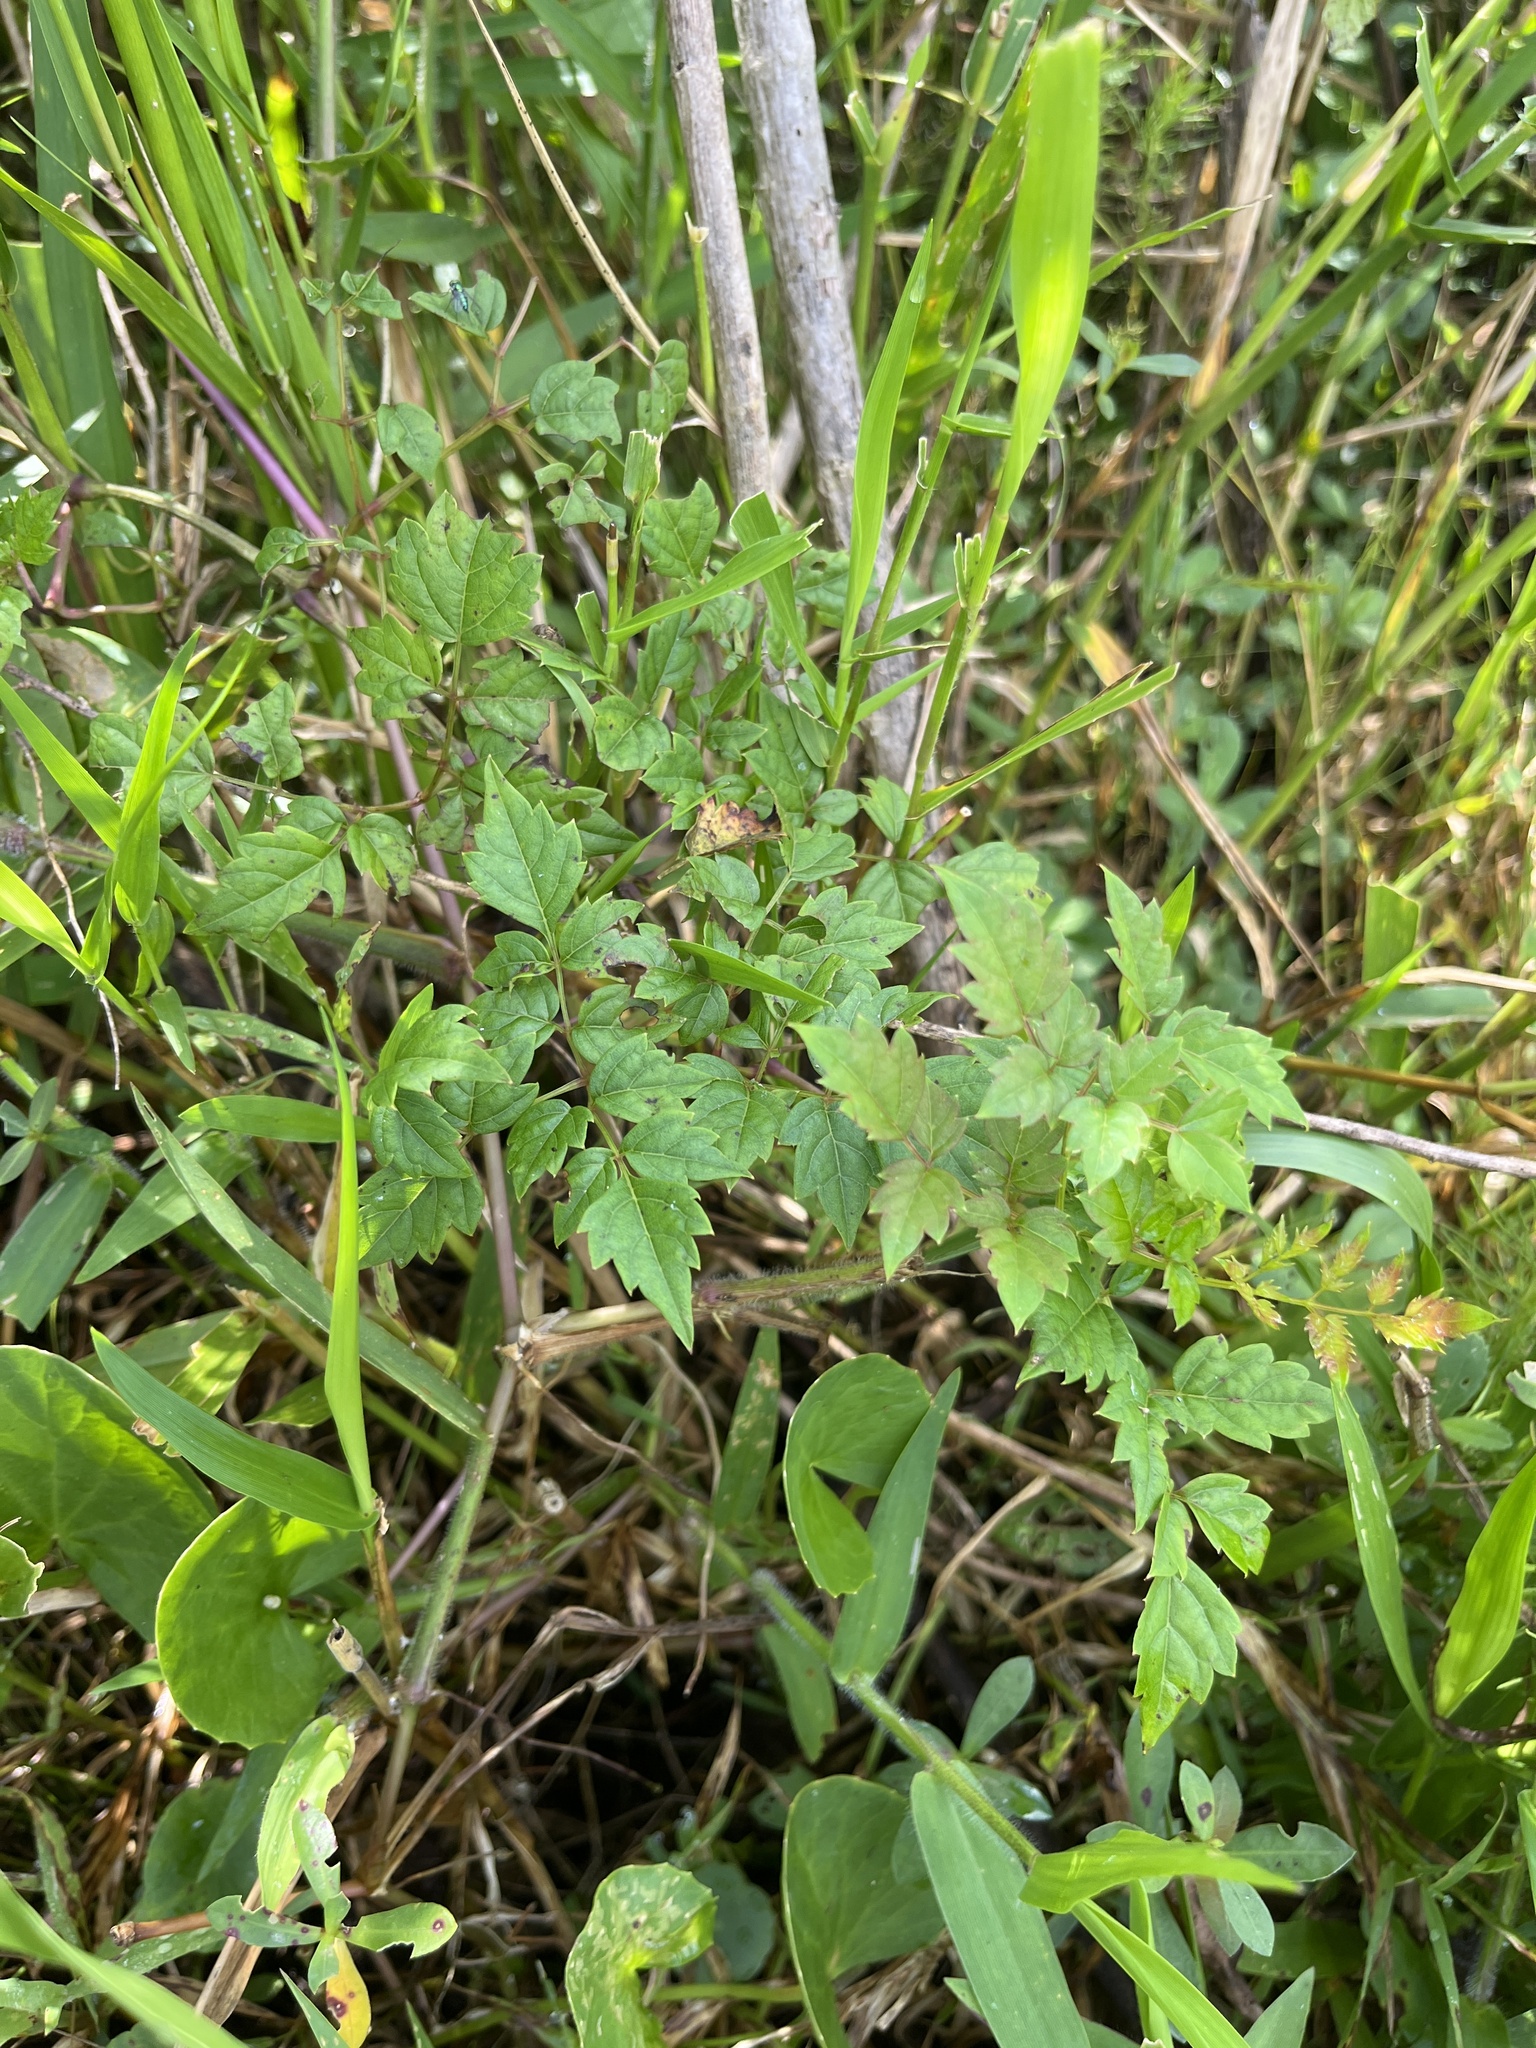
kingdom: Plantae
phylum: Tracheophyta
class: Magnoliopsida
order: Vitales
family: Vitaceae
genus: Nekemias
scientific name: Nekemias arborea
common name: Peppervine
